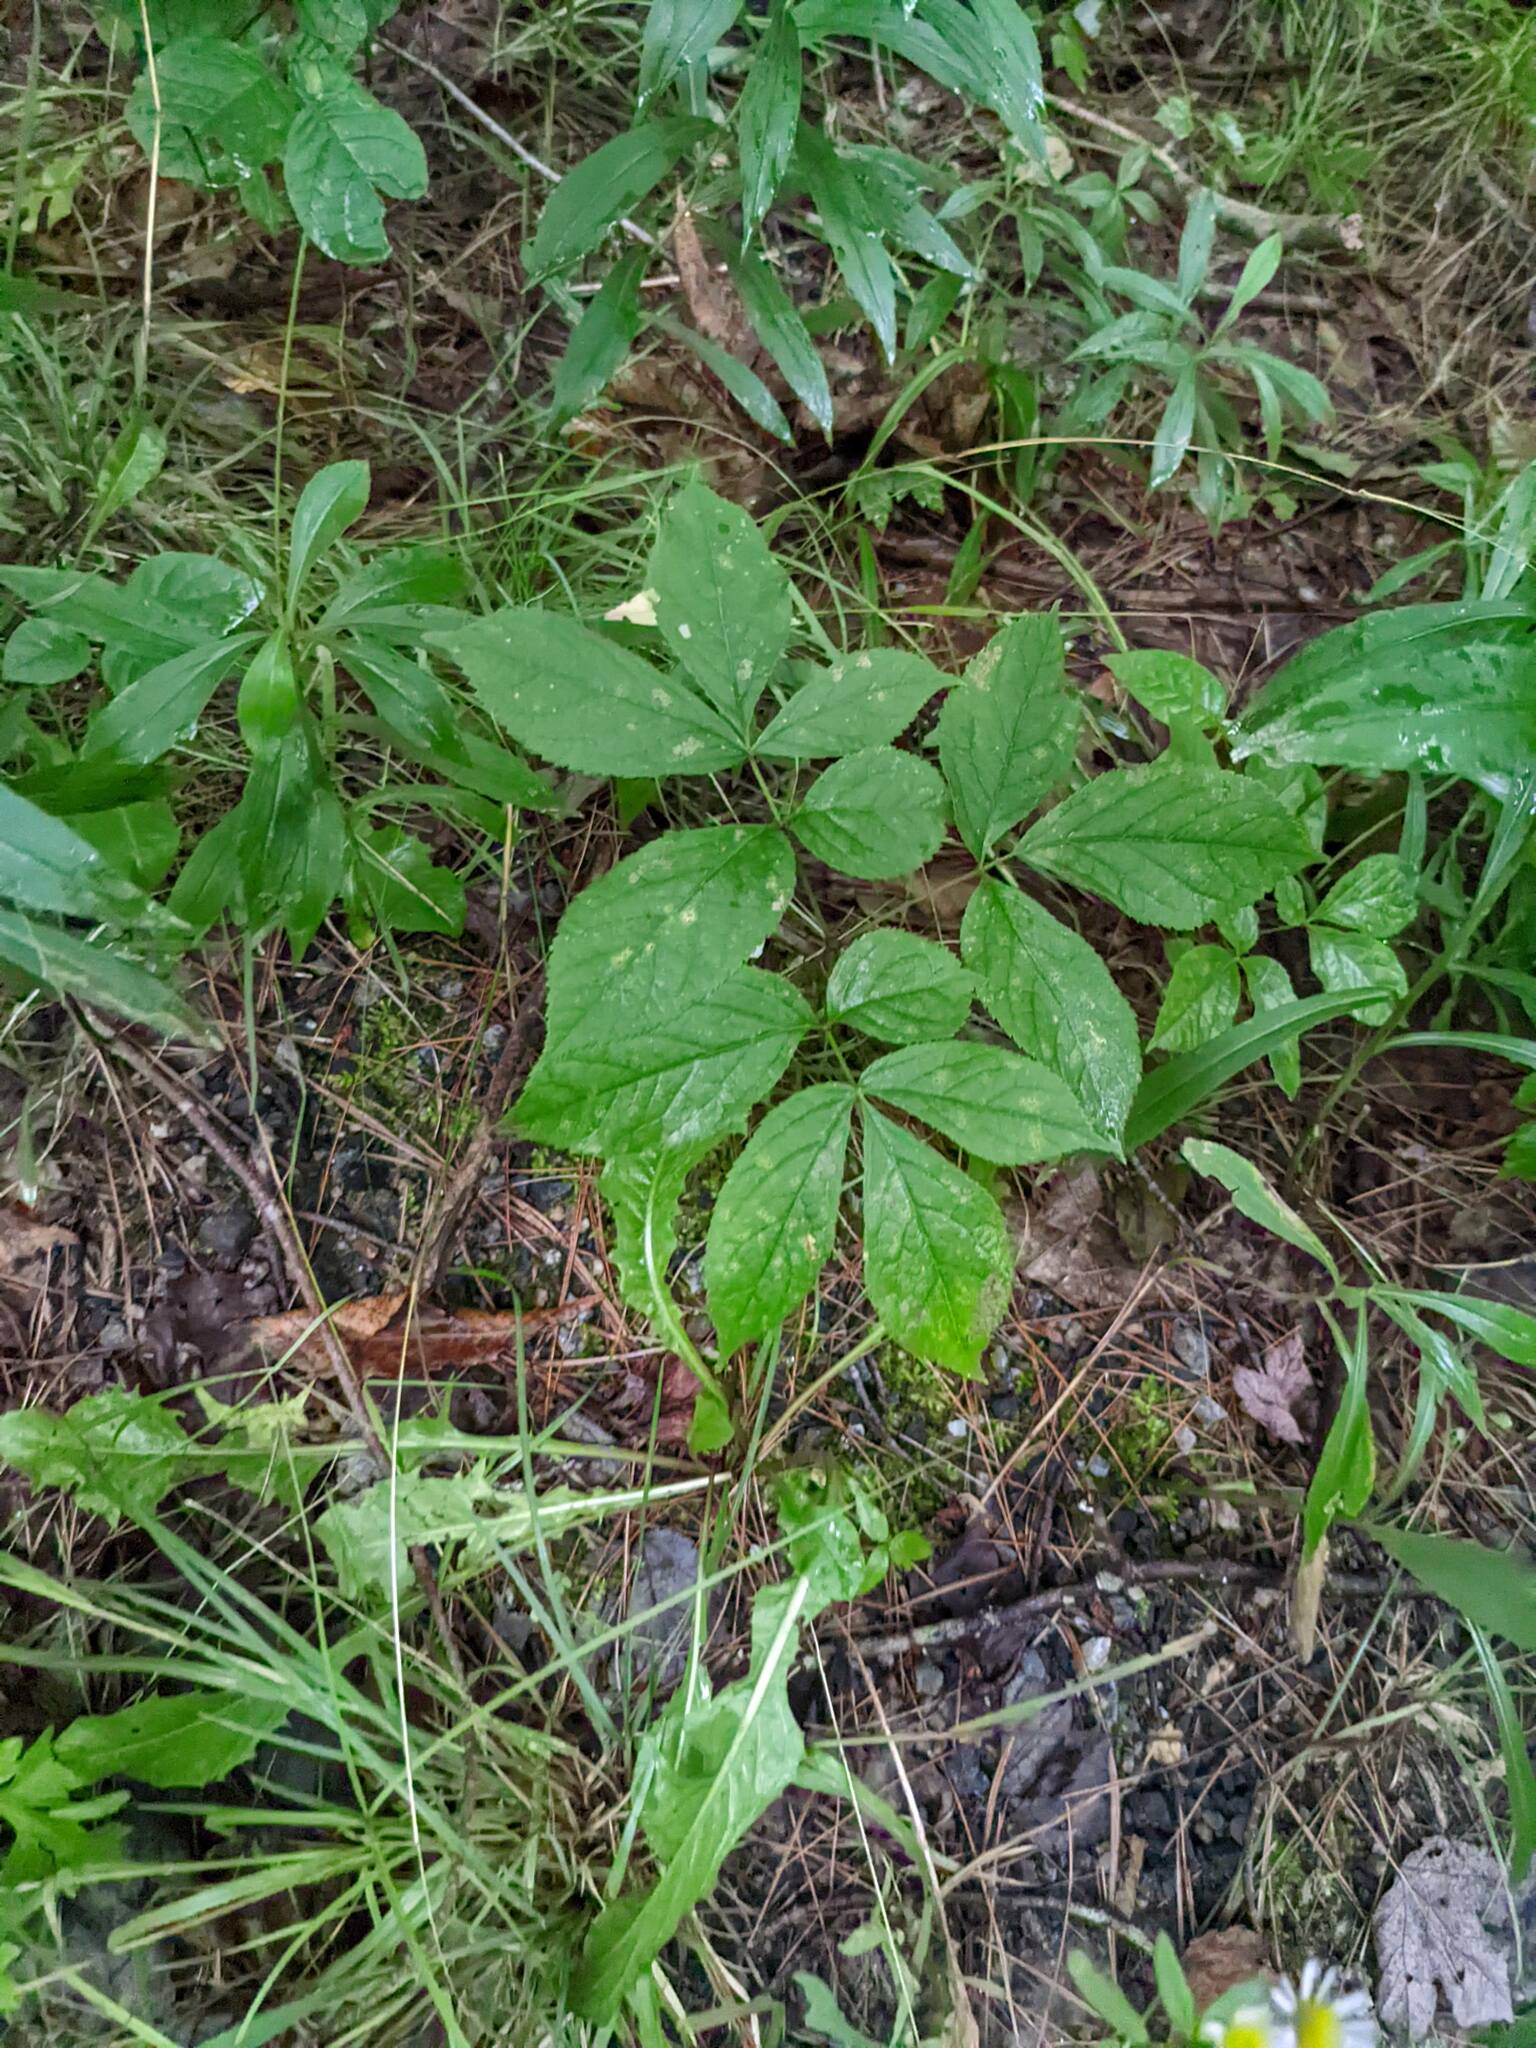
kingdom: Plantae
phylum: Tracheophyta
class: Magnoliopsida
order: Apiales
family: Araliaceae
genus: Aralia
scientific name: Aralia nudicaulis
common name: Wild sarsaparilla
